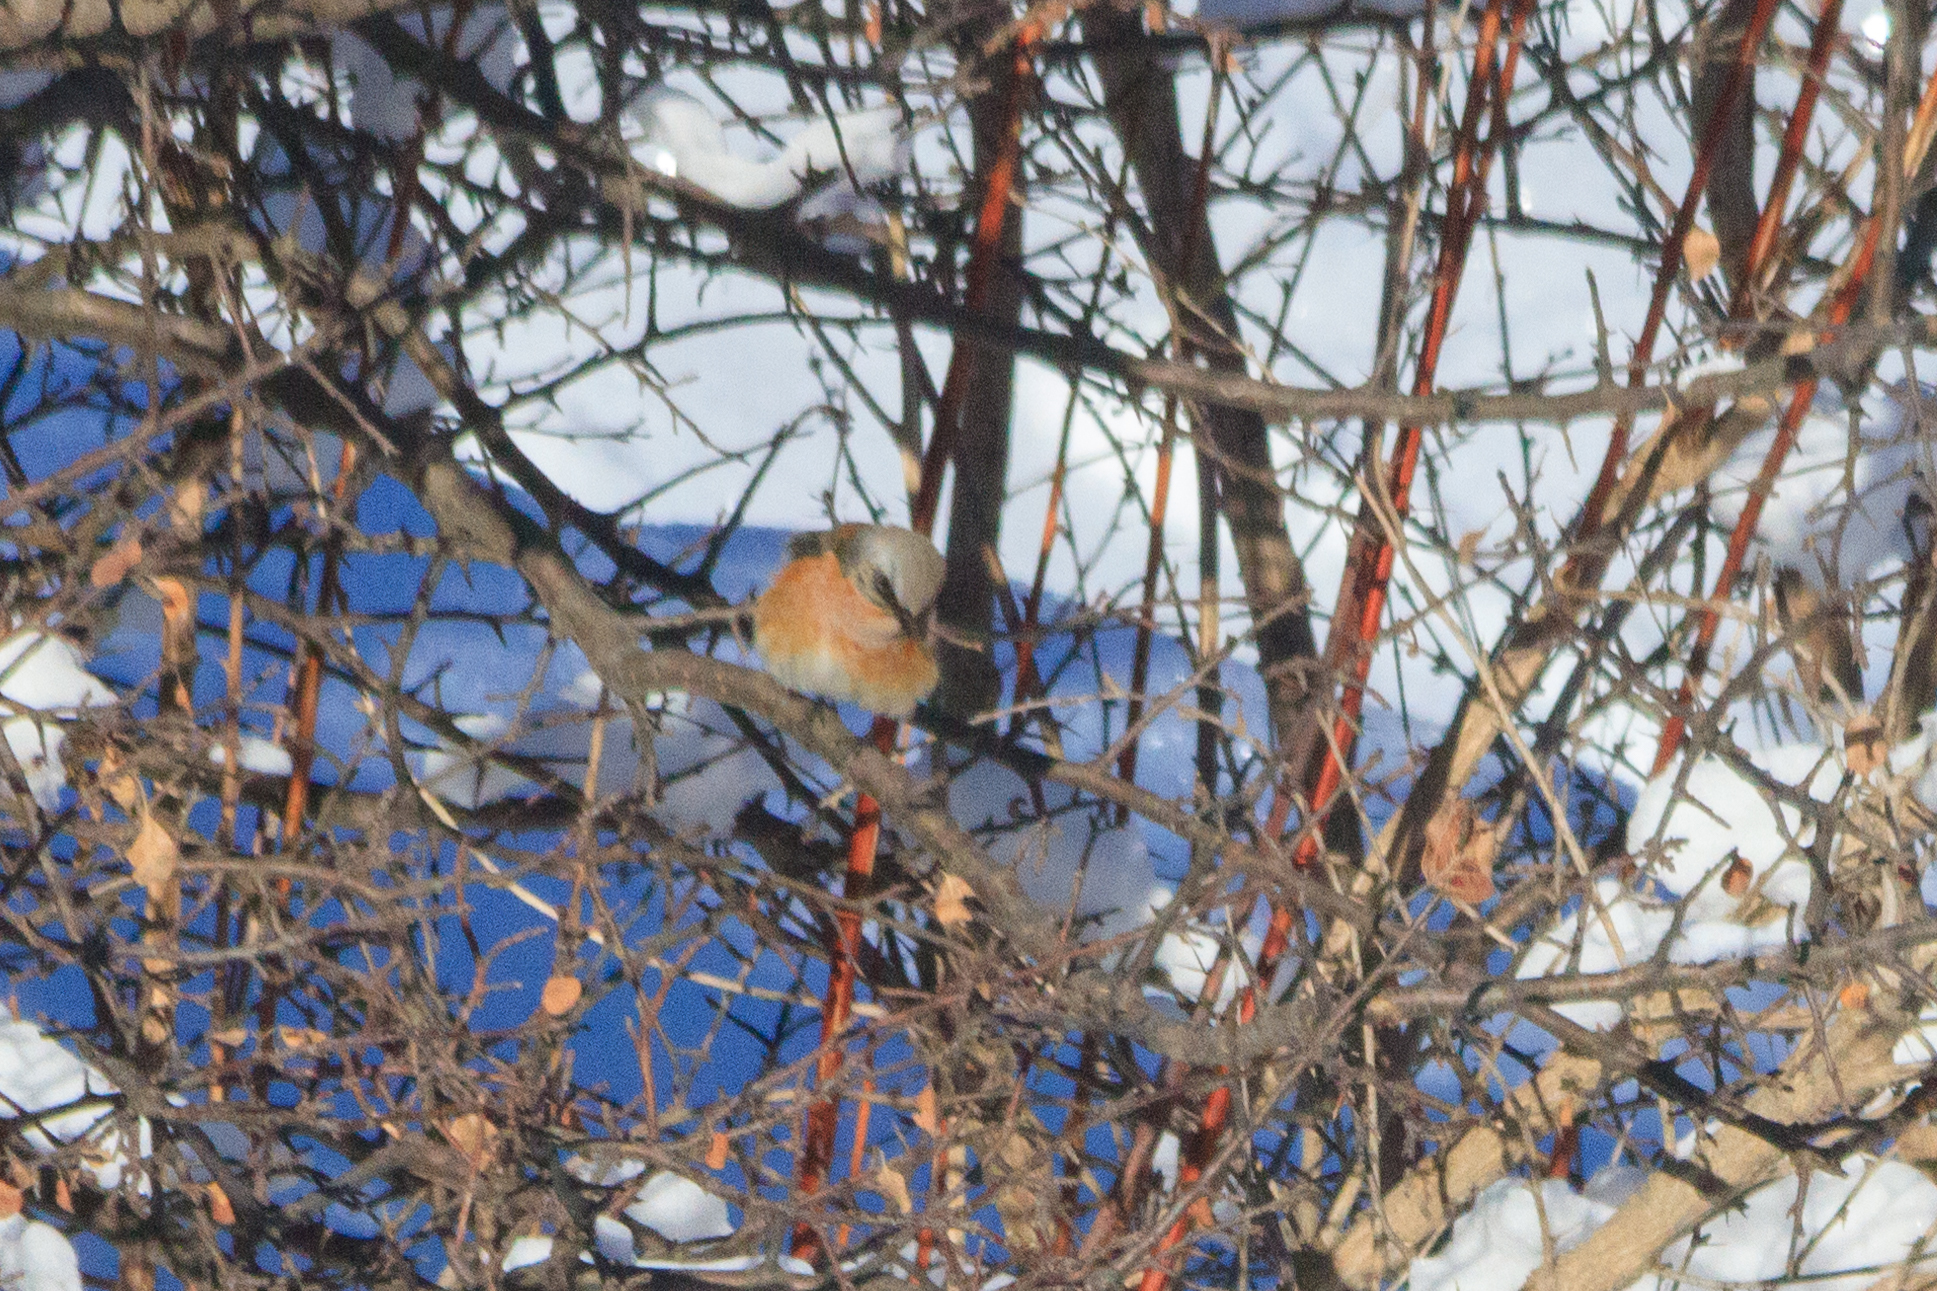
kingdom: Animalia
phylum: Chordata
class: Aves
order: Passeriformes
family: Muscicapidae
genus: Phoenicurus
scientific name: Phoenicurus erythronotus
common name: Eversmann's redstart
